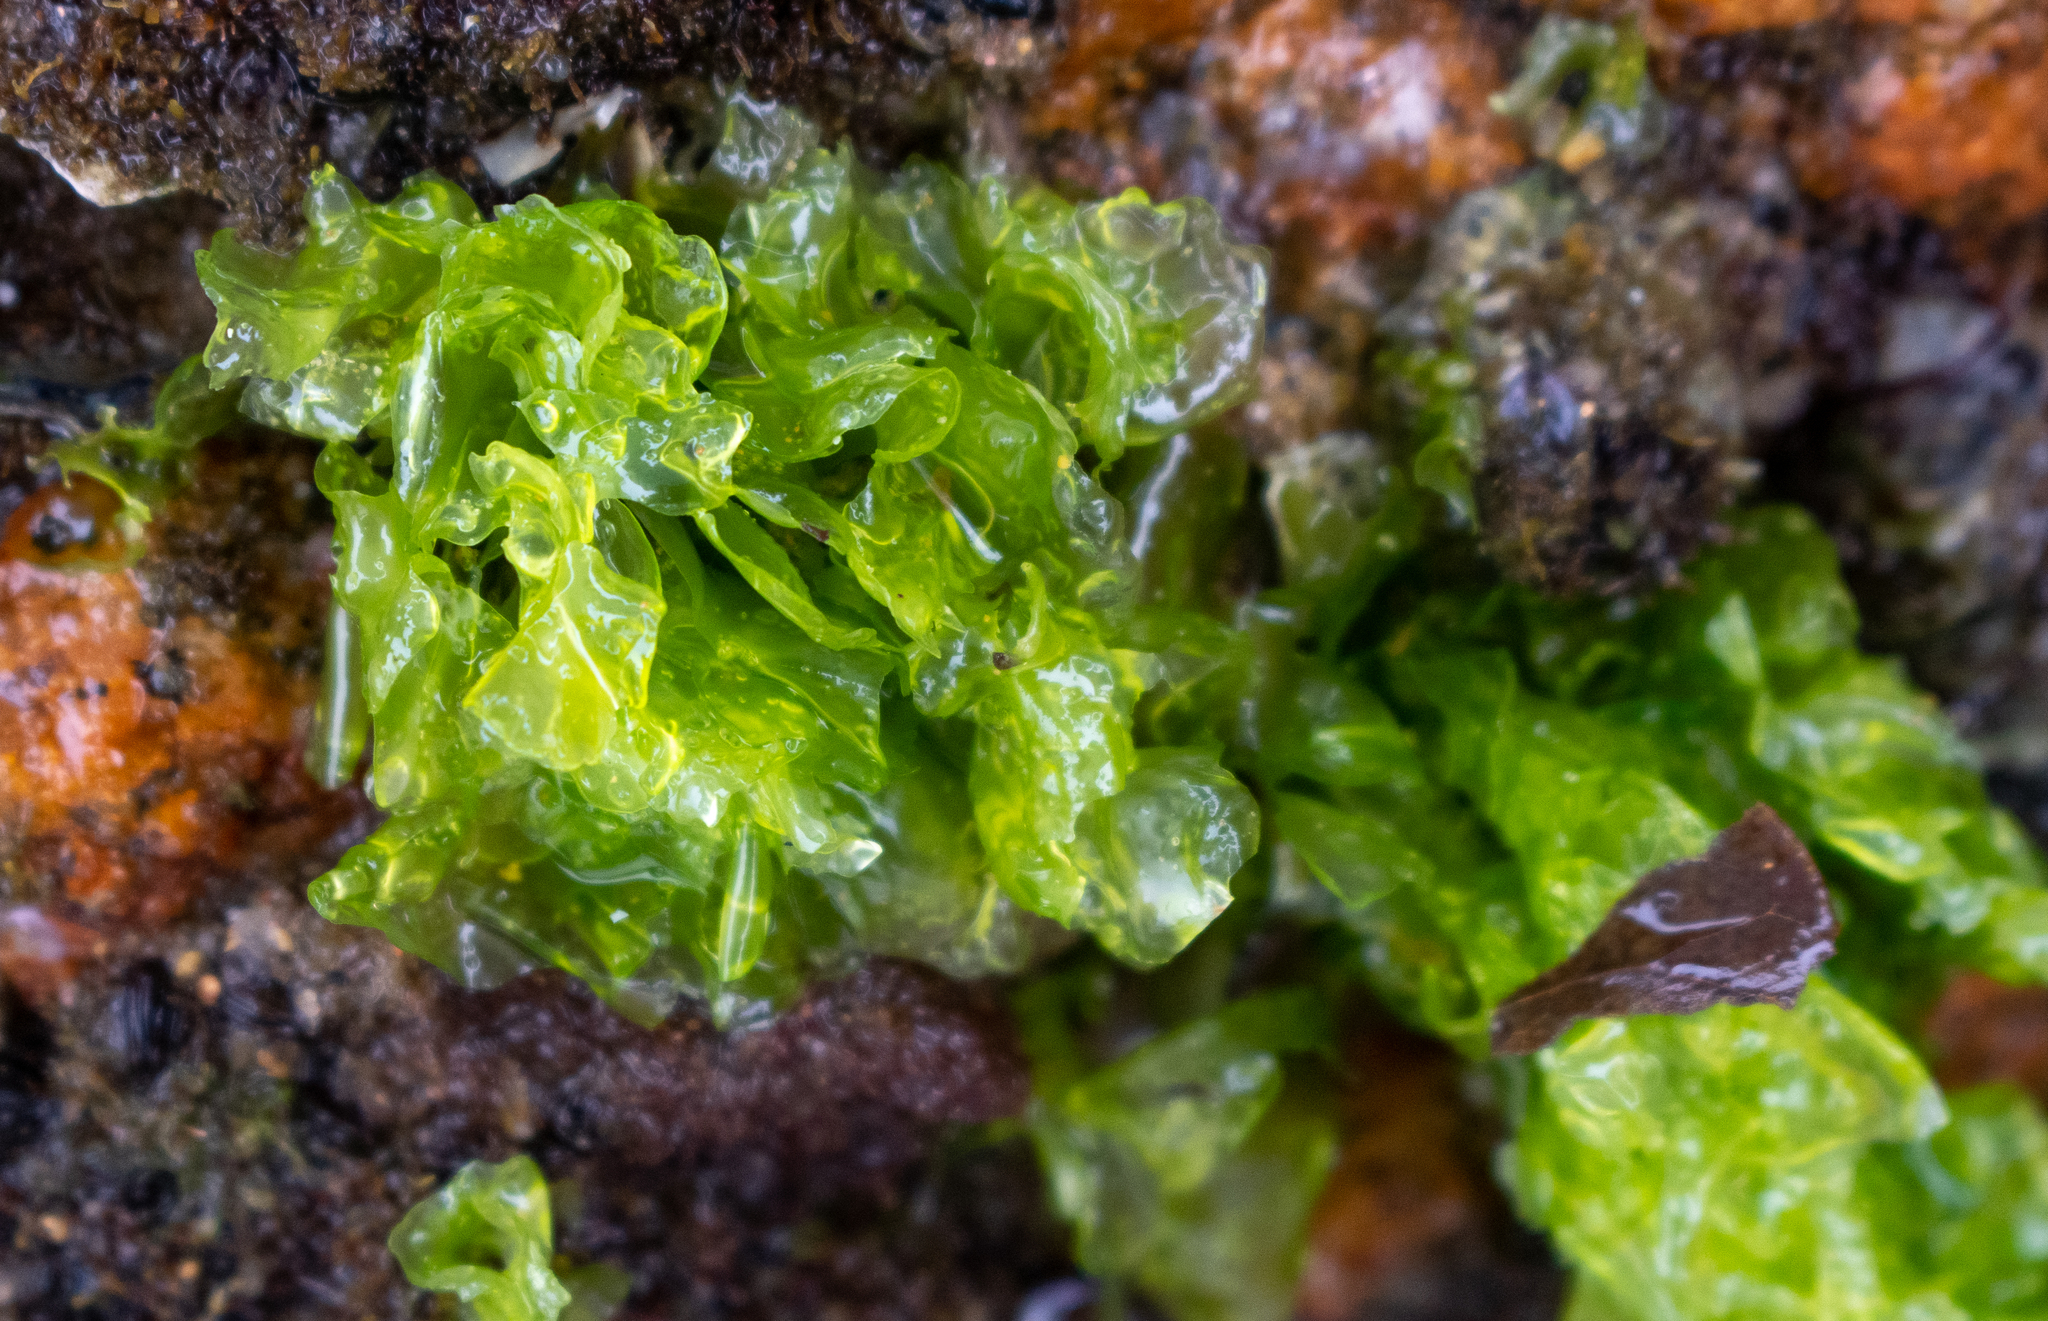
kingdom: Plantae
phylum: Chlorophyta
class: Ulvophyceae
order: Ulvales
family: Ulvaceae
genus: Ulva
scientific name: Ulva lactuca
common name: Sea lettuce
